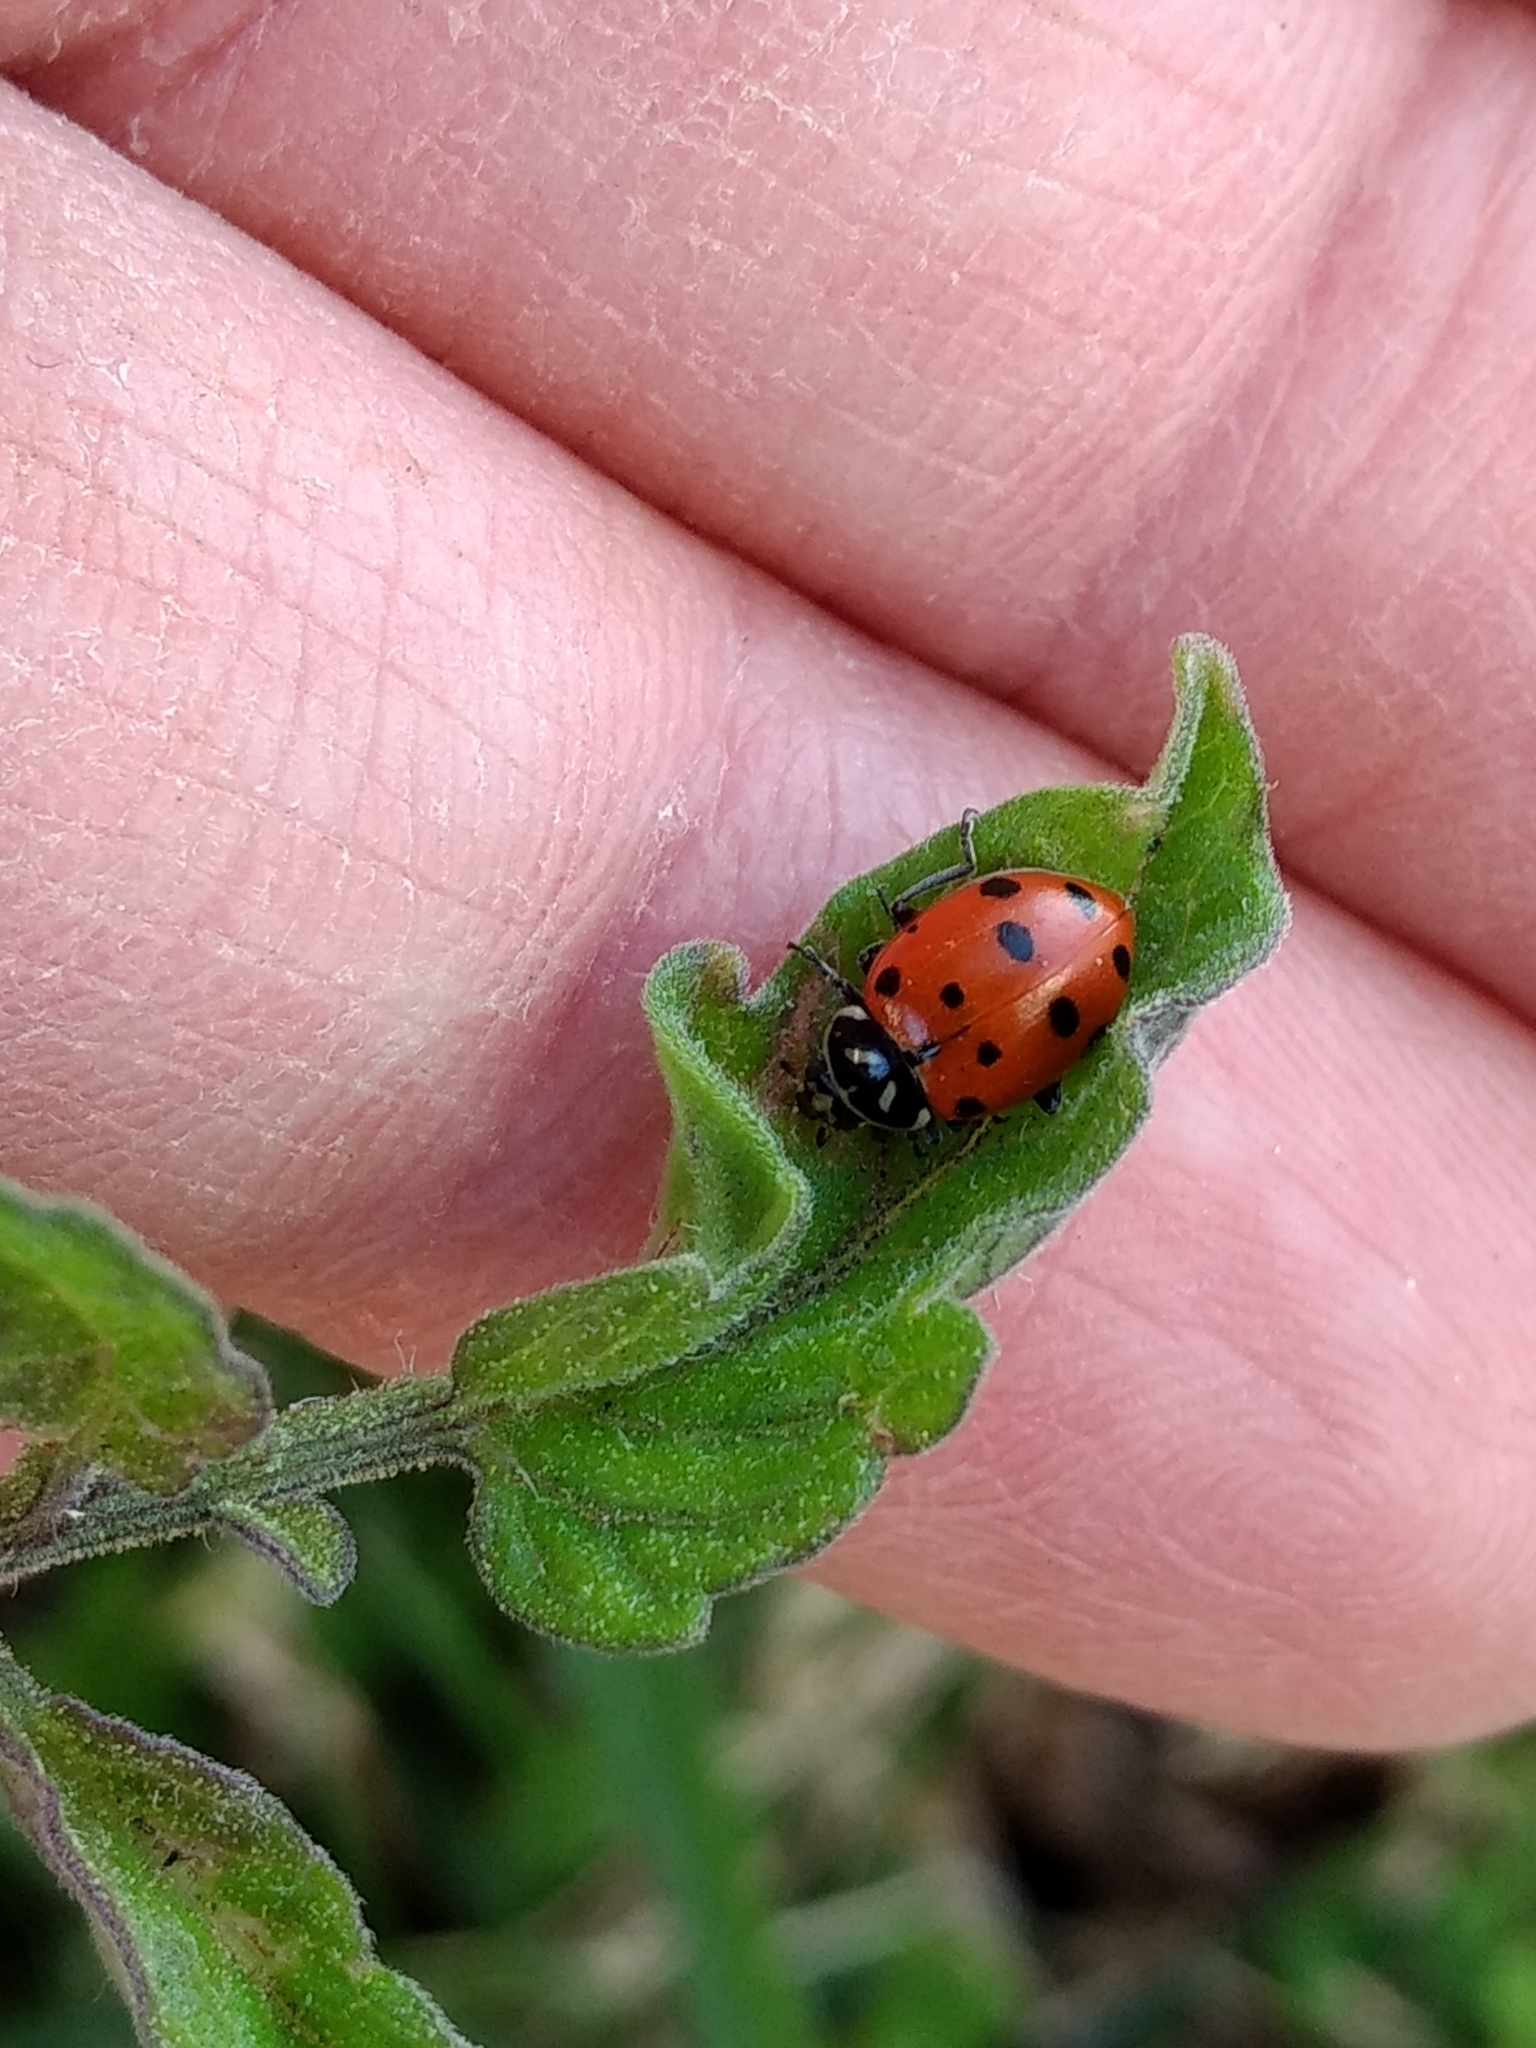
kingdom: Animalia
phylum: Arthropoda
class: Insecta
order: Coleoptera
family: Coccinellidae
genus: Hippodamia
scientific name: Hippodamia convergens
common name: Convergent lady beetle
